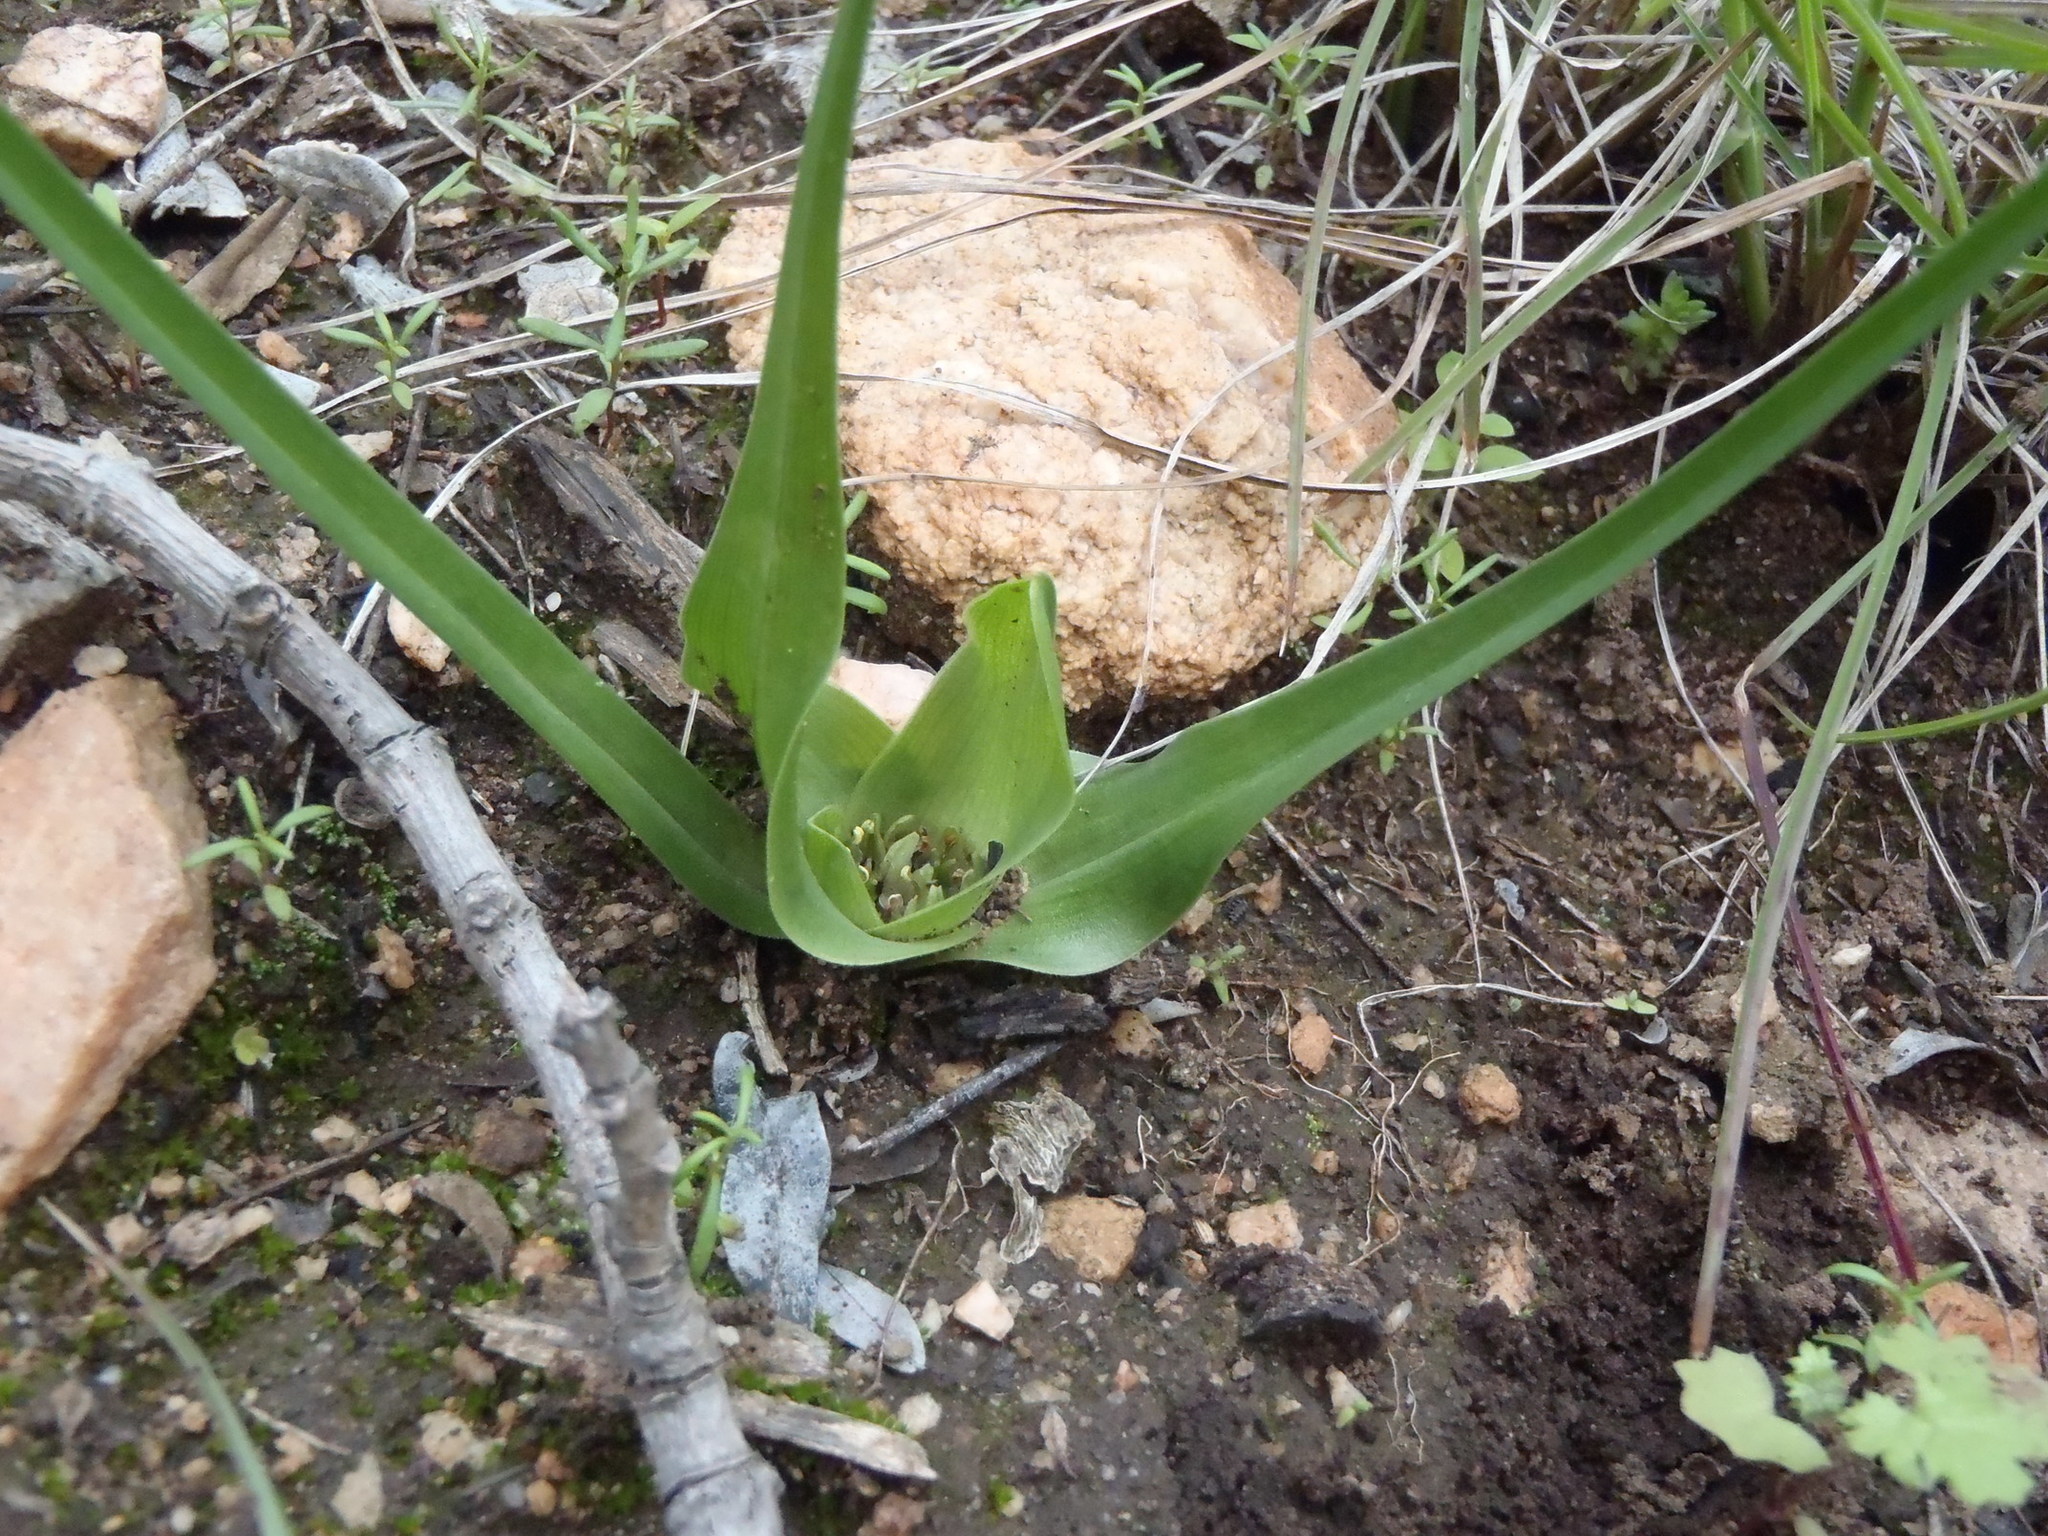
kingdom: Plantae
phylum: Tracheophyta
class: Liliopsida
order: Liliales
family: Colchicaceae
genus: Colchicum
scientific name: Colchicum longipes
